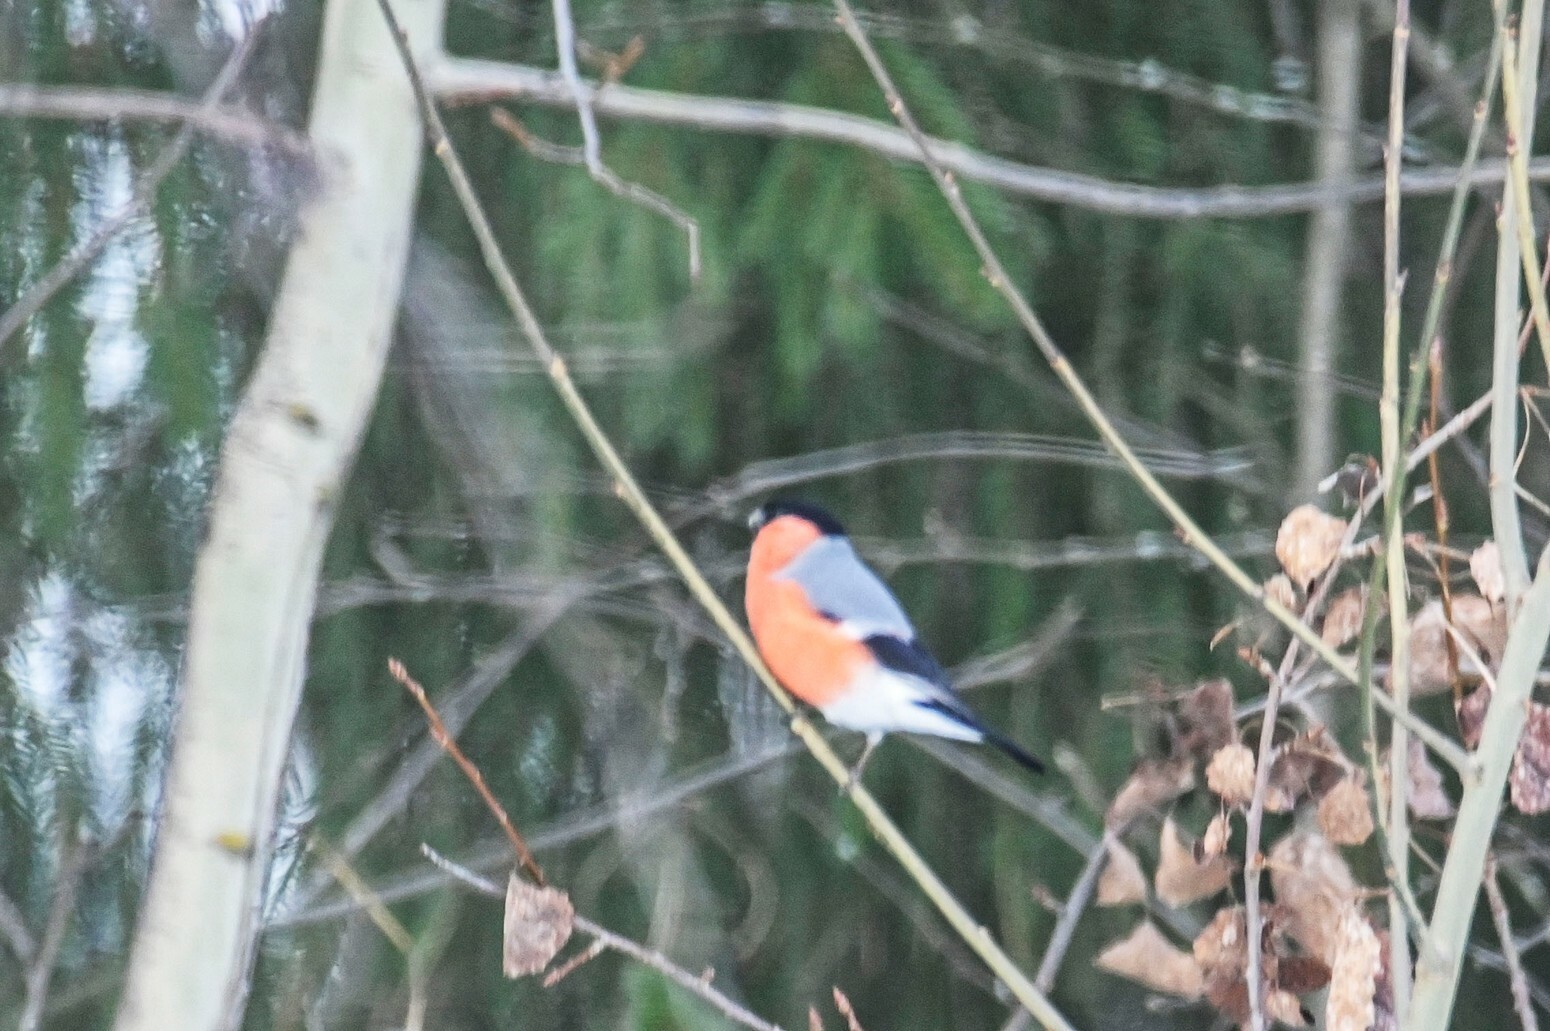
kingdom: Animalia
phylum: Chordata
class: Aves
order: Passeriformes
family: Fringillidae
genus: Pyrrhula
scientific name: Pyrrhula pyrrhula
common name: Eurasian bullfinch
